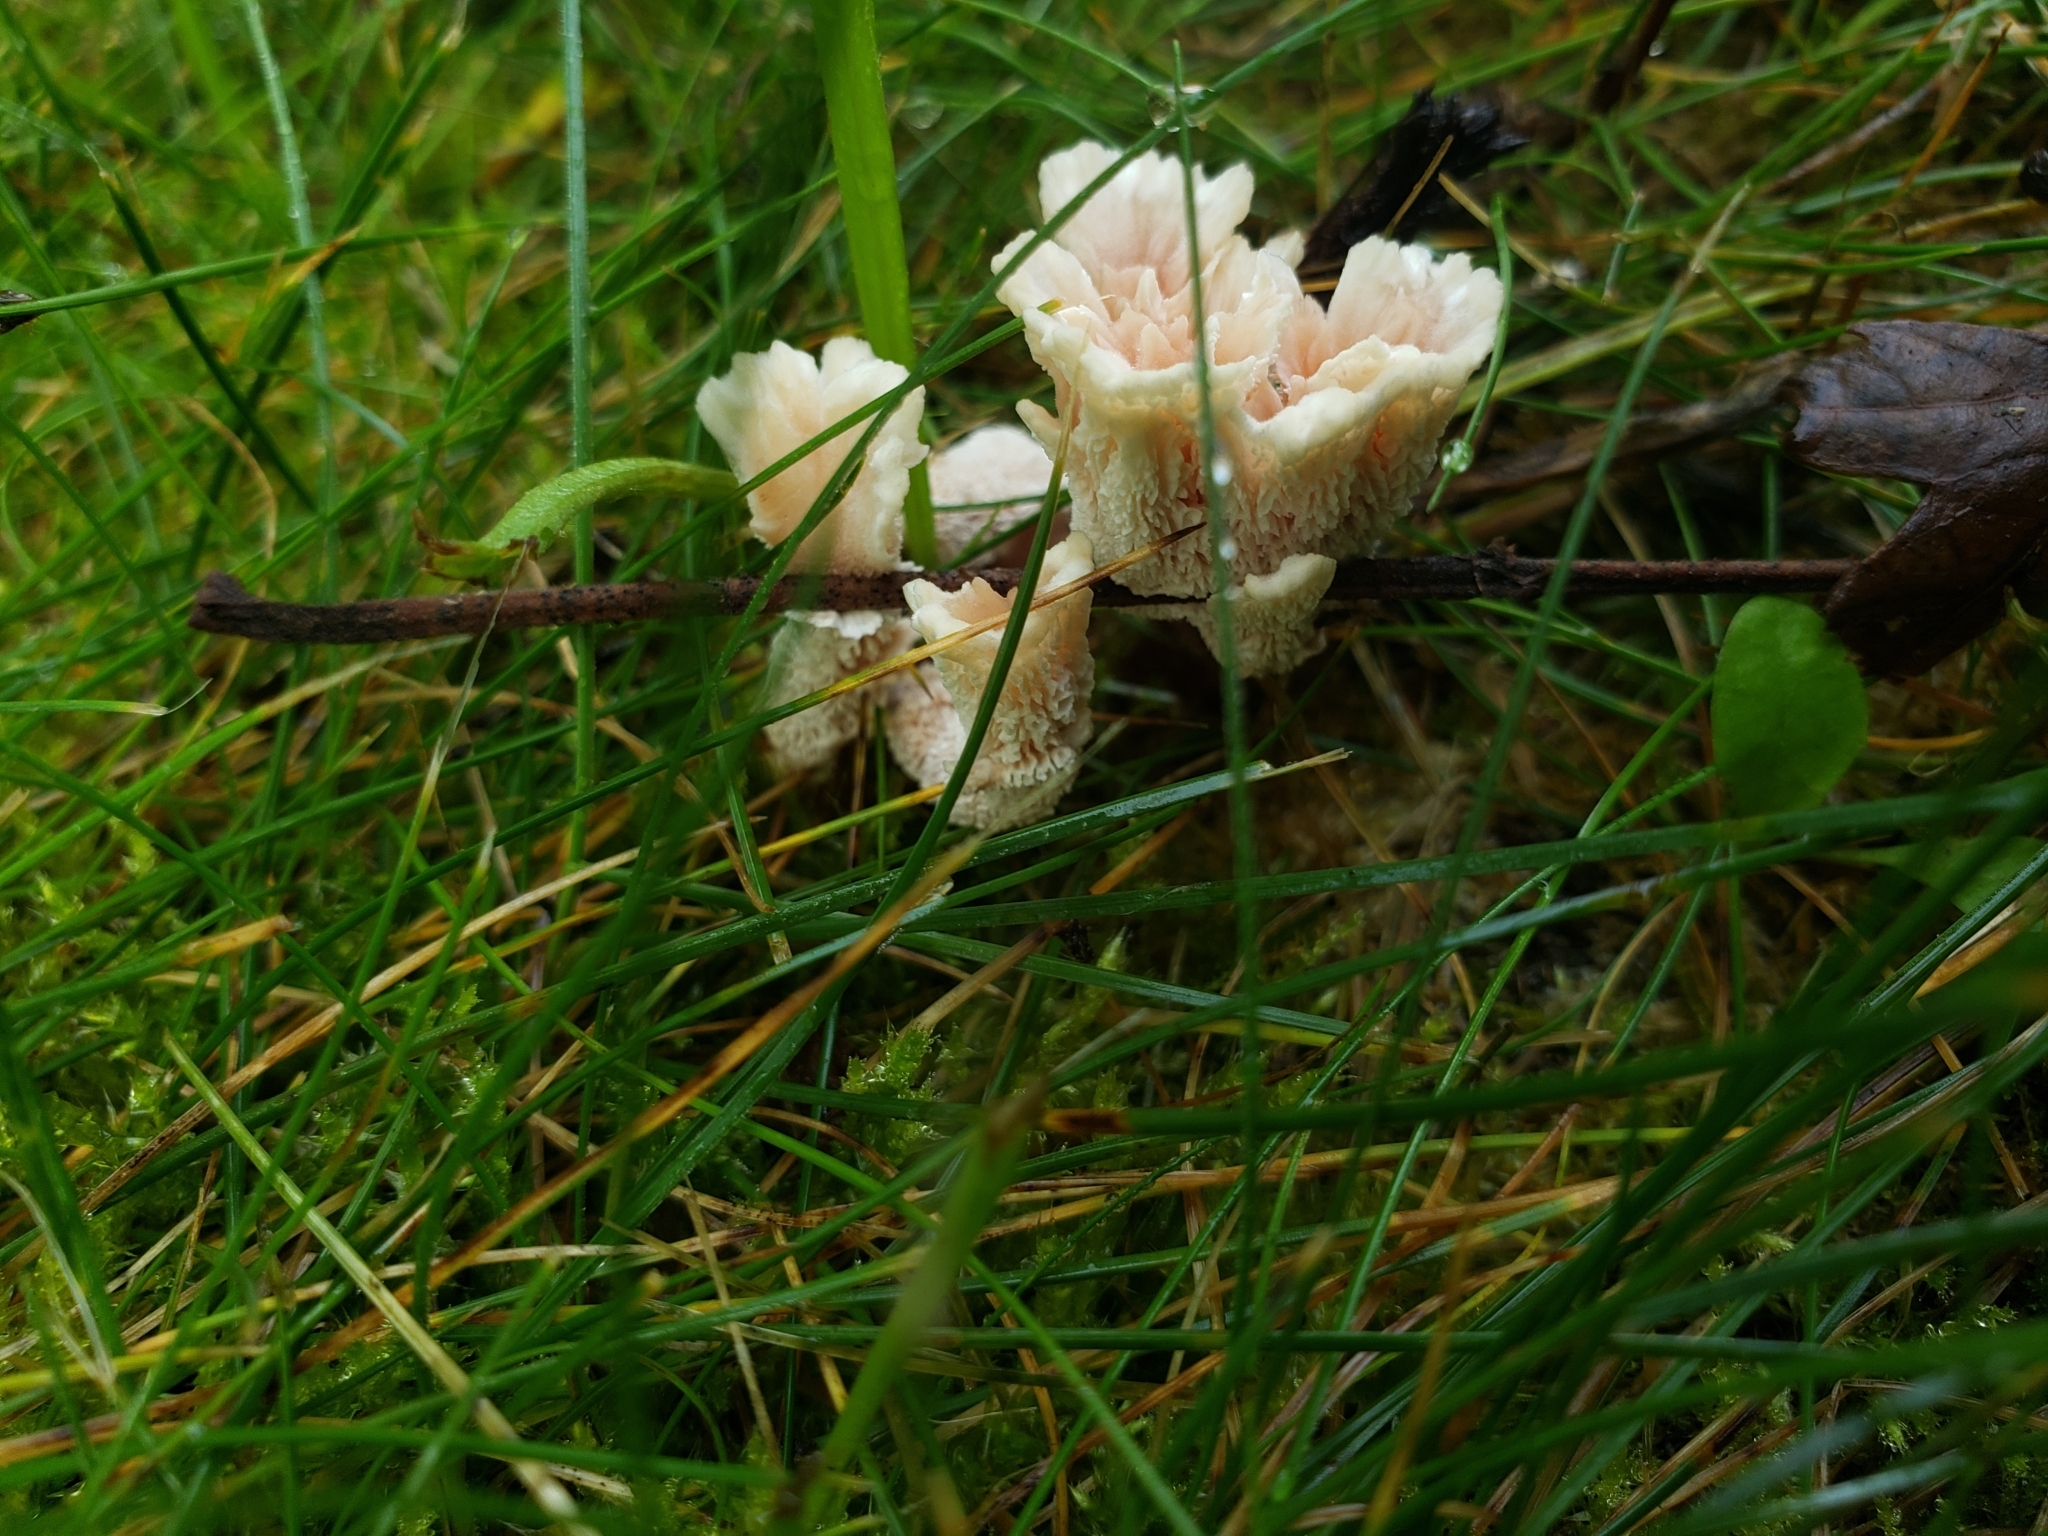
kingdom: Fungi
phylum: Basidiomycota
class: Agaricomycetes
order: Polyporales
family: Podoscyphaceae
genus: Abortiporus
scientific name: Abortiporus biennis
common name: Blushing rosette
